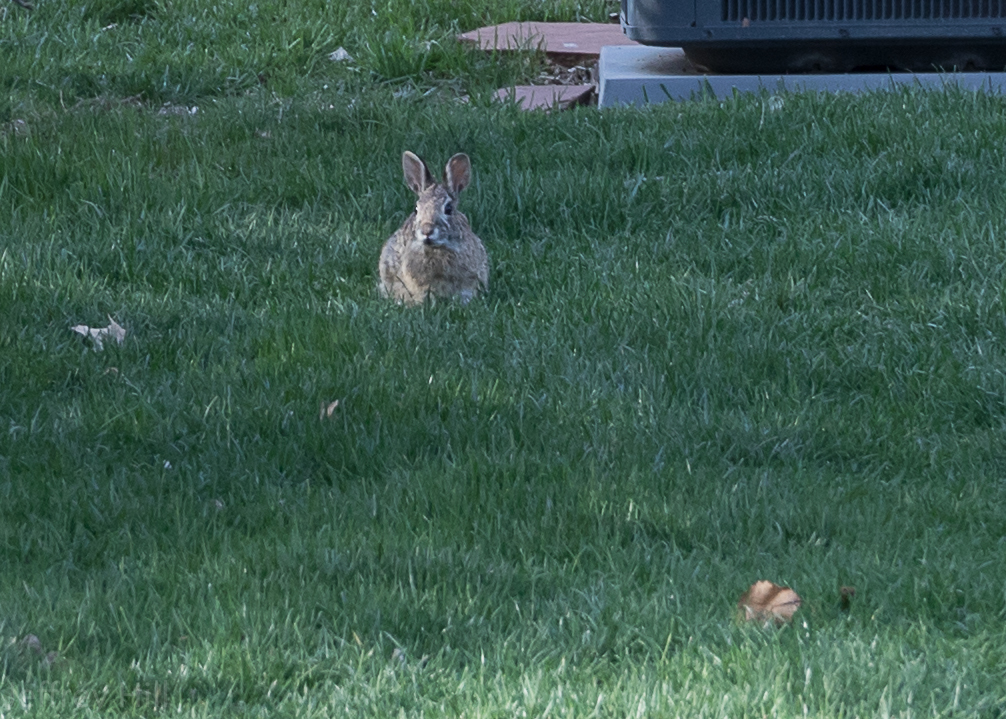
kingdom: Animalia
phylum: Chordata
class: Mammalia
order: Lagomorpha
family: Leporidae
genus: Sylvilagus
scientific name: Sylvilagus floridanus
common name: Eastern cottontail
